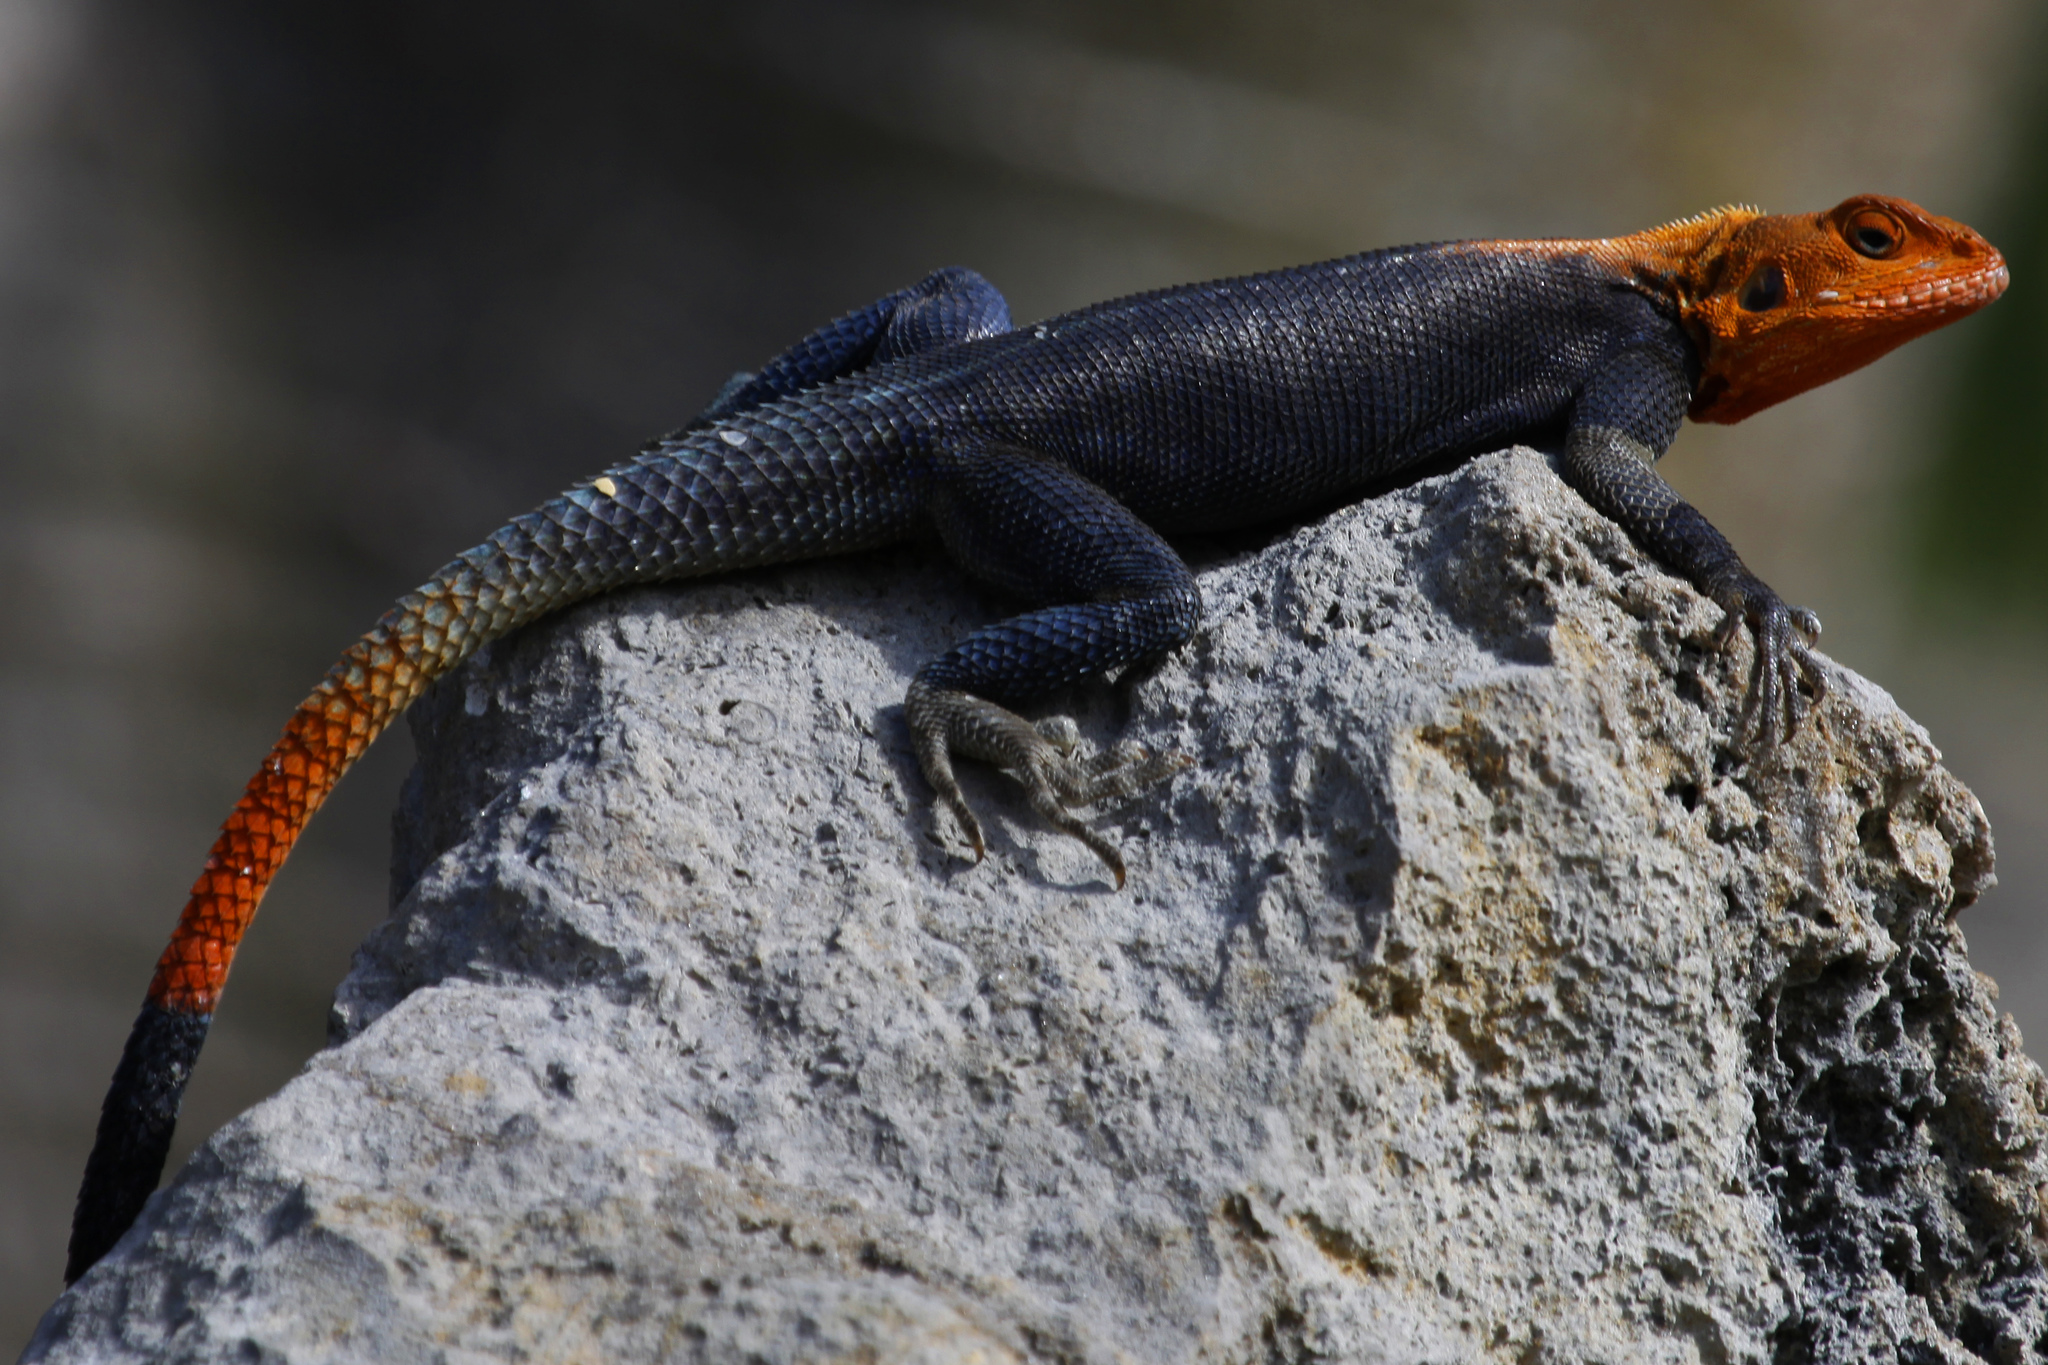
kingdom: Animalia
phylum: Chordata
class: Squamata
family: Agamidae
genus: Agama
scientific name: Agama picticauda
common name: Red-headed agama
